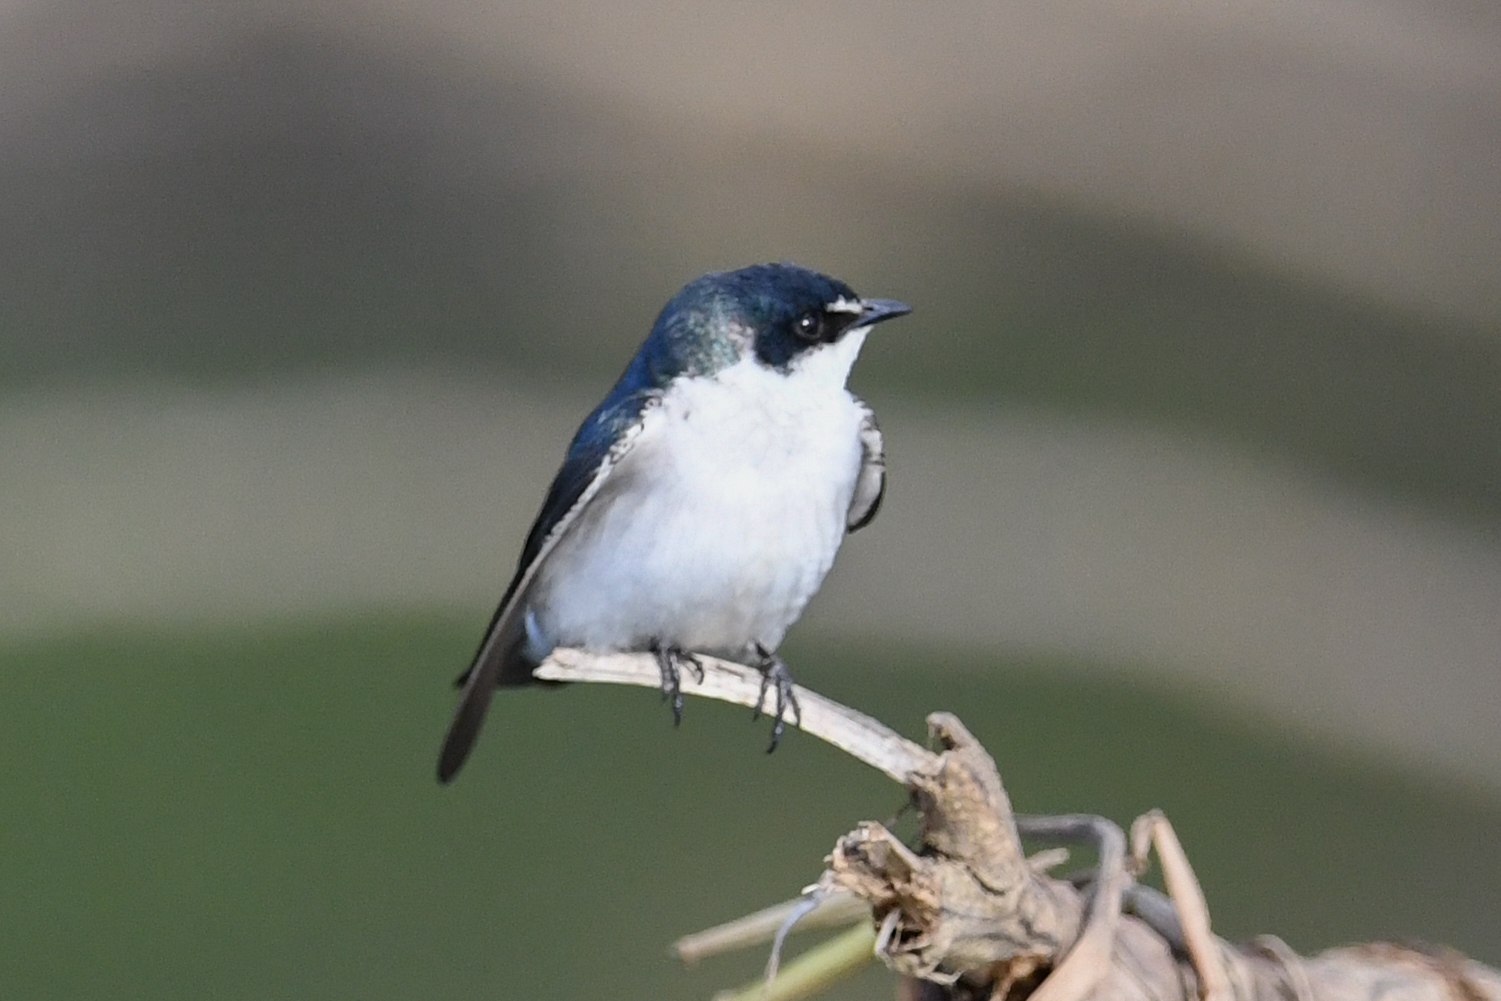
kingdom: Animalia
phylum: Chordata
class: Aves
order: Passeriformes
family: Hirundinidae
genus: Tachycineta
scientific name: Tachycineta albilinea
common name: Mangrove swallow
